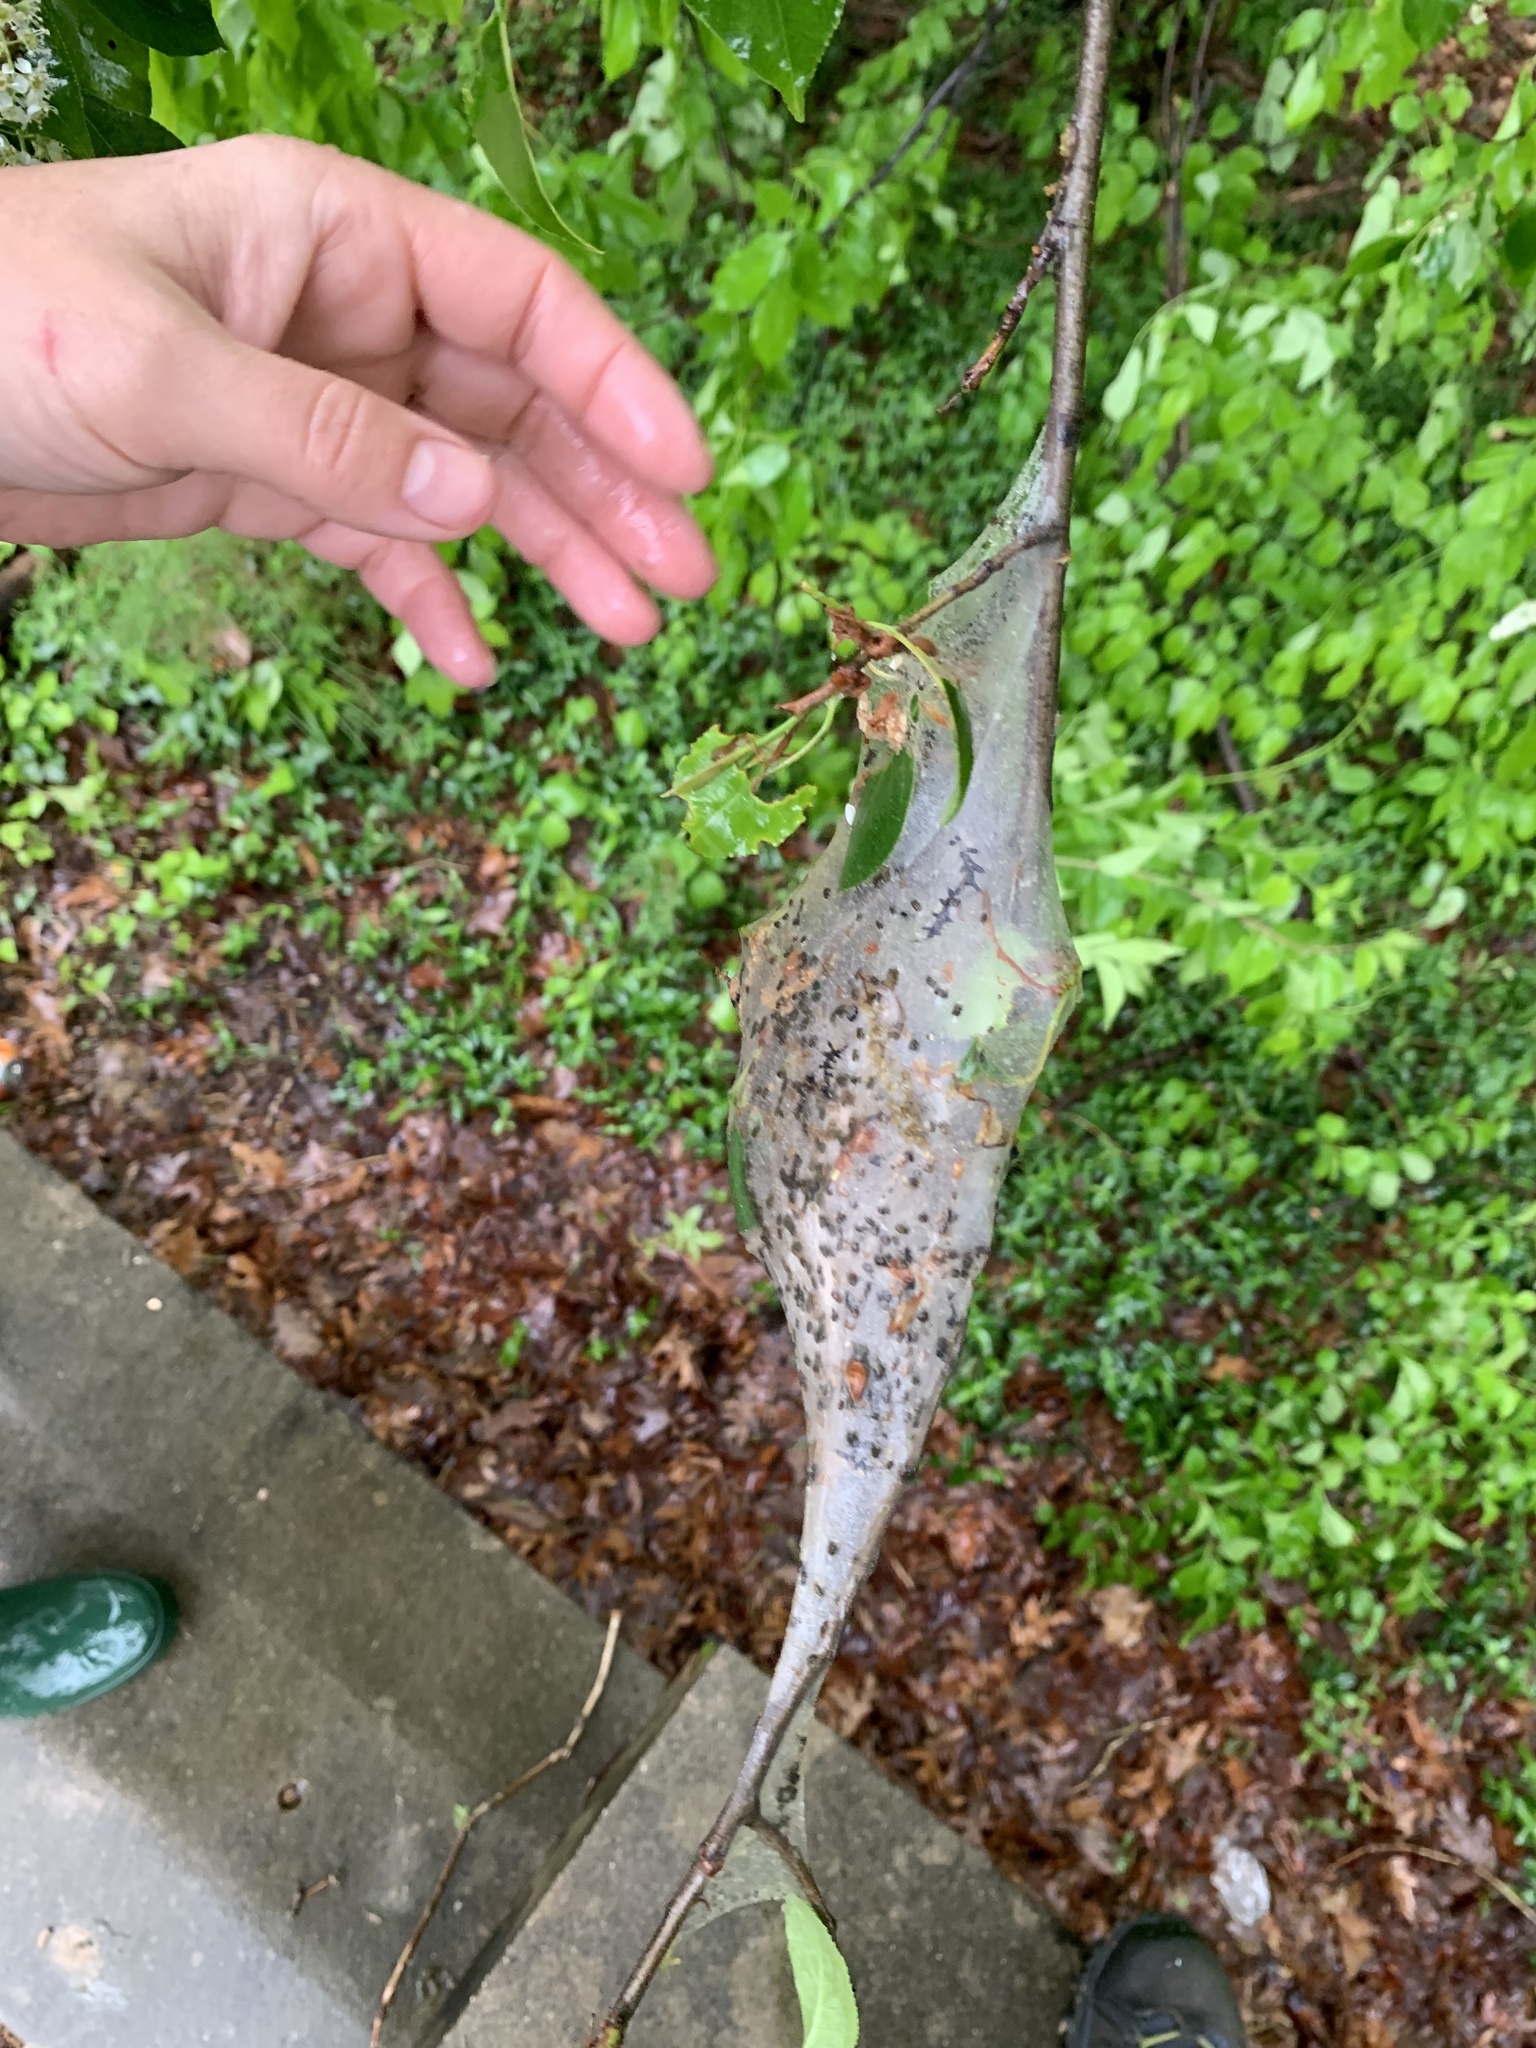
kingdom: Animalia
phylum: Arthropoda
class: Insecta
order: Lepidoptera
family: Lasiocampidae
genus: Malacosoma
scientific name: Malacosoma americana
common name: Eastern tent caterpillar moth
